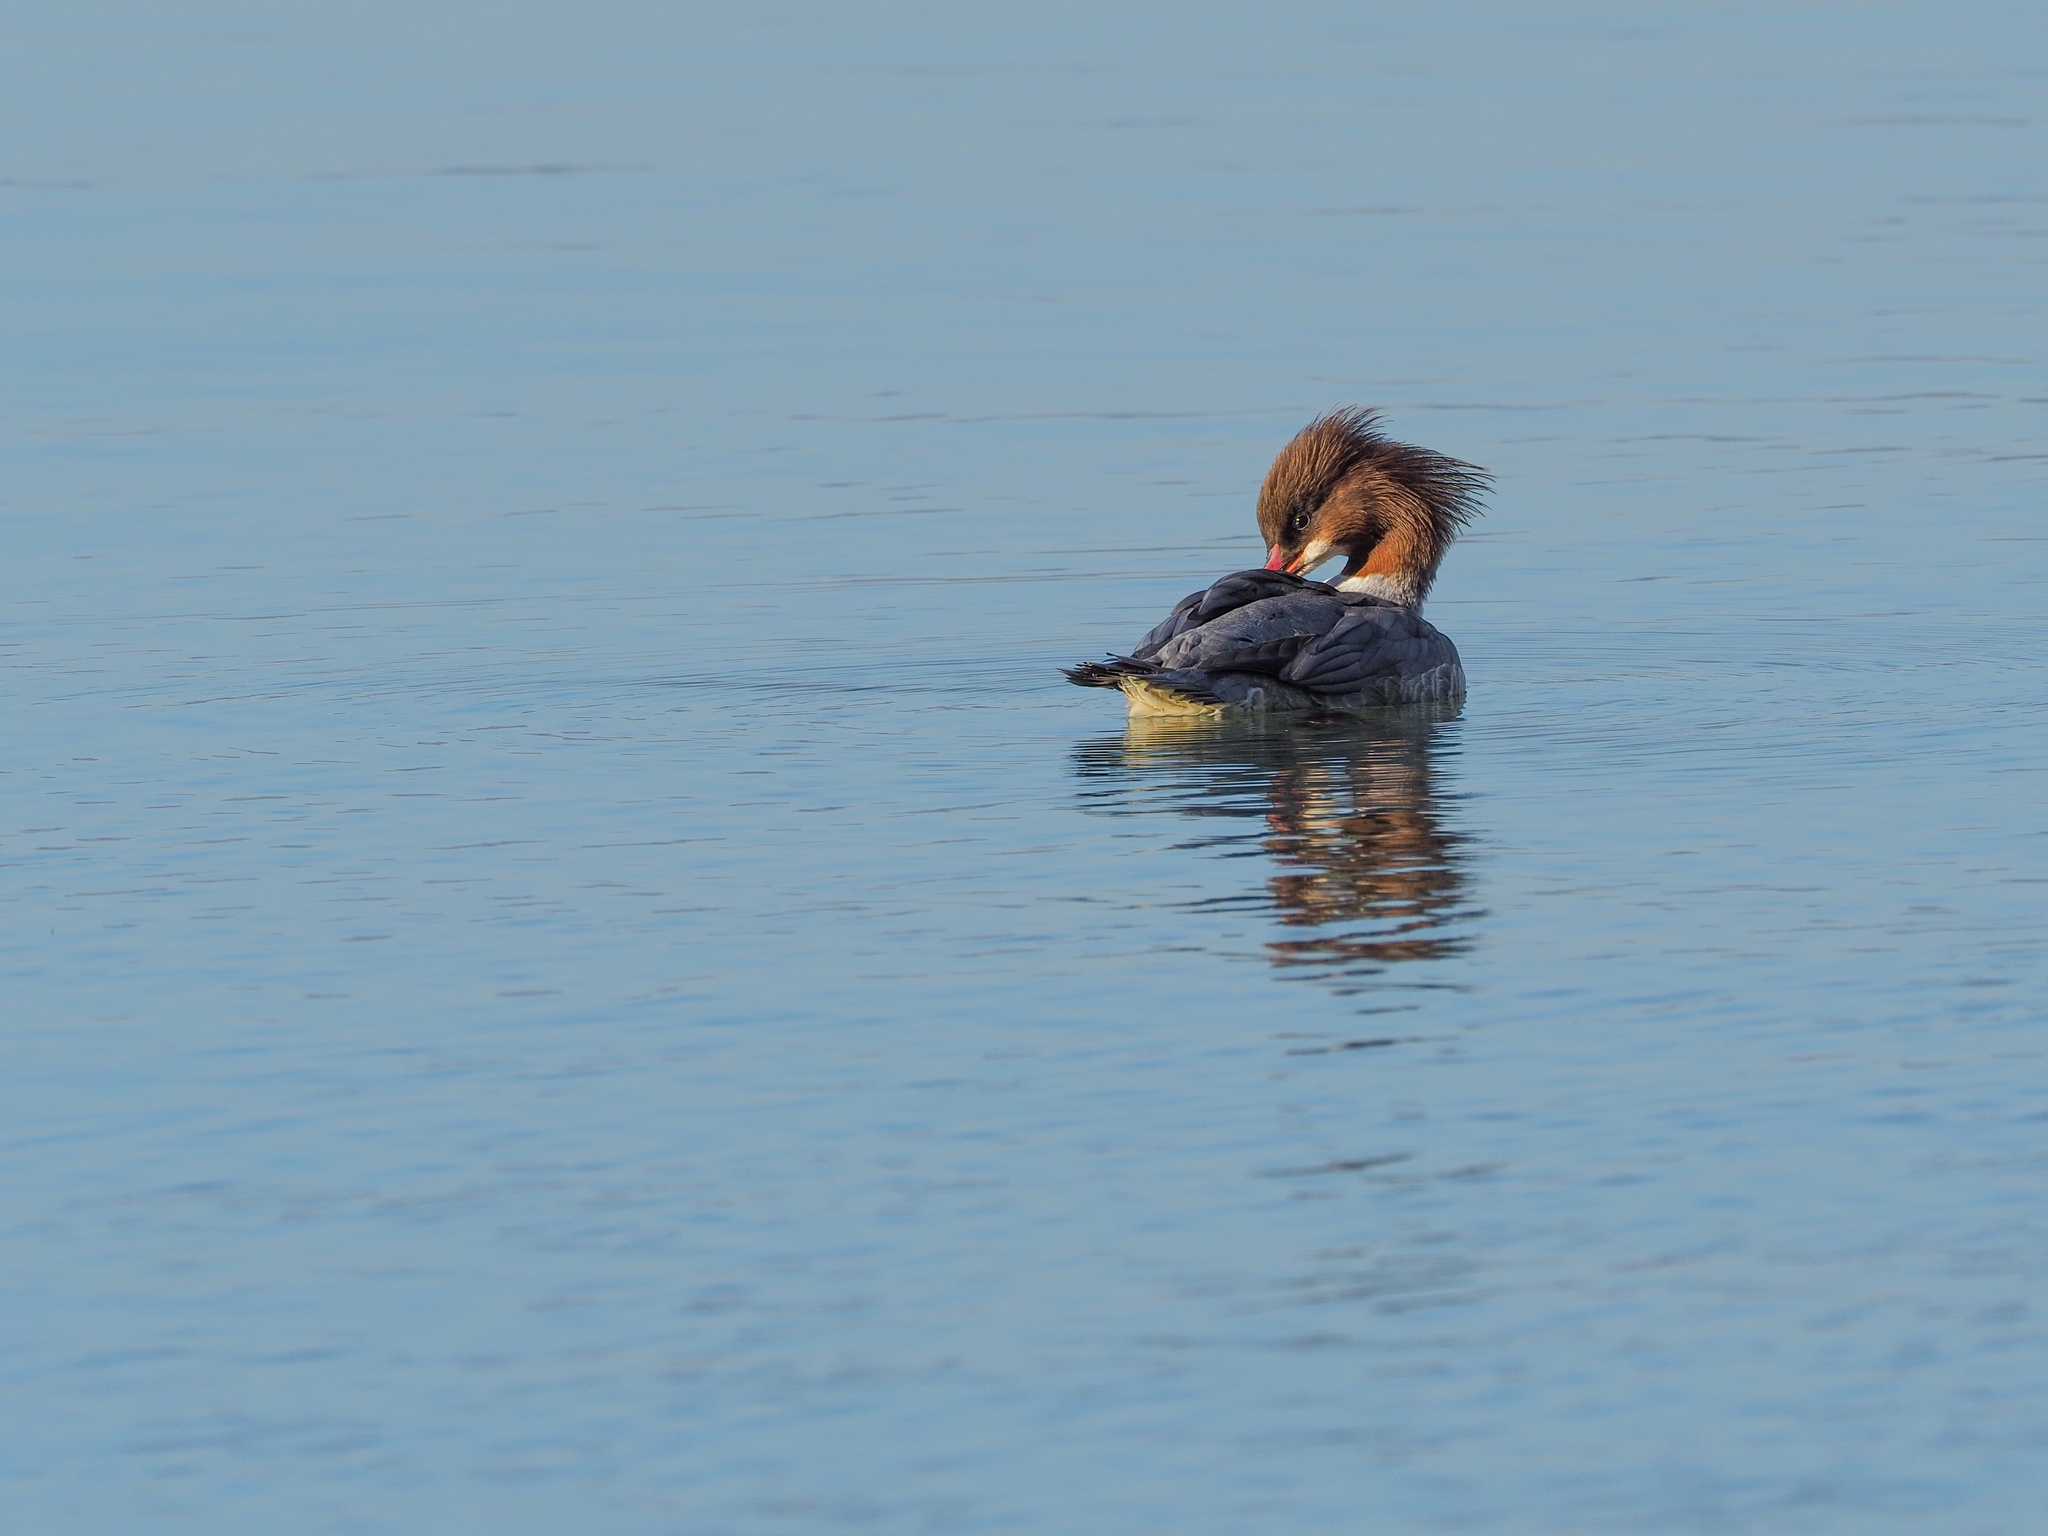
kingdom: Animalia
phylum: Chordata
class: Aves
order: Anseriformes
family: Anatidae
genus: Mergus
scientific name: Mergus merganser
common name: Common merganser
